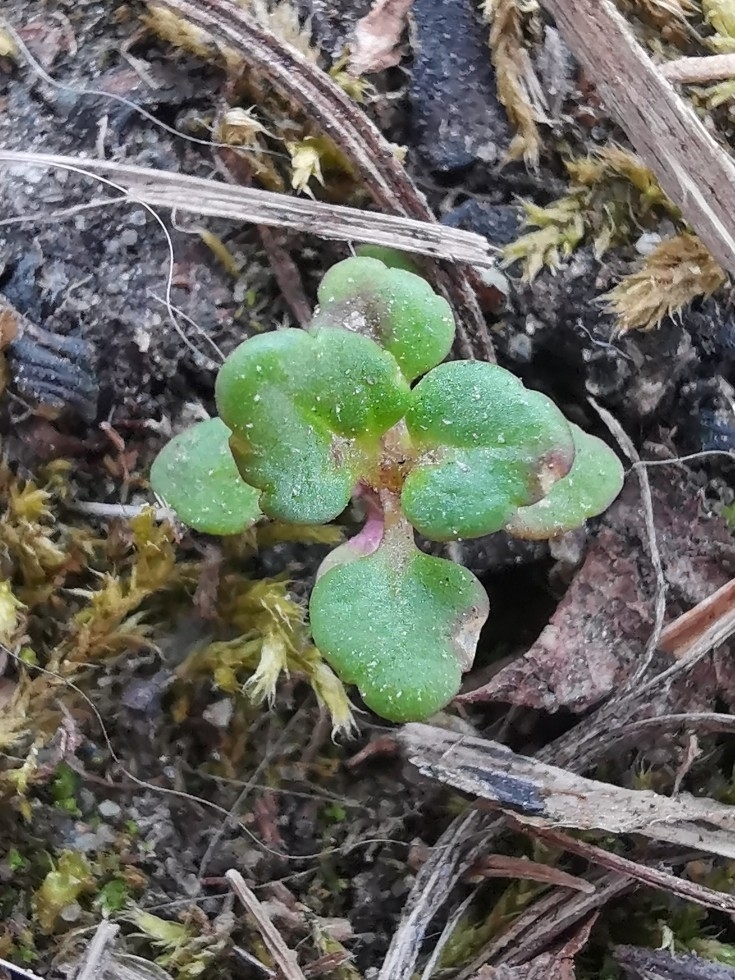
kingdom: Plantae
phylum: Tracheophyta
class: Magnoliopsida
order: Lamiales
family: Plantaginaceae
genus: Veronica
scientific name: Veronica arvensis
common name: Corn speedwell
